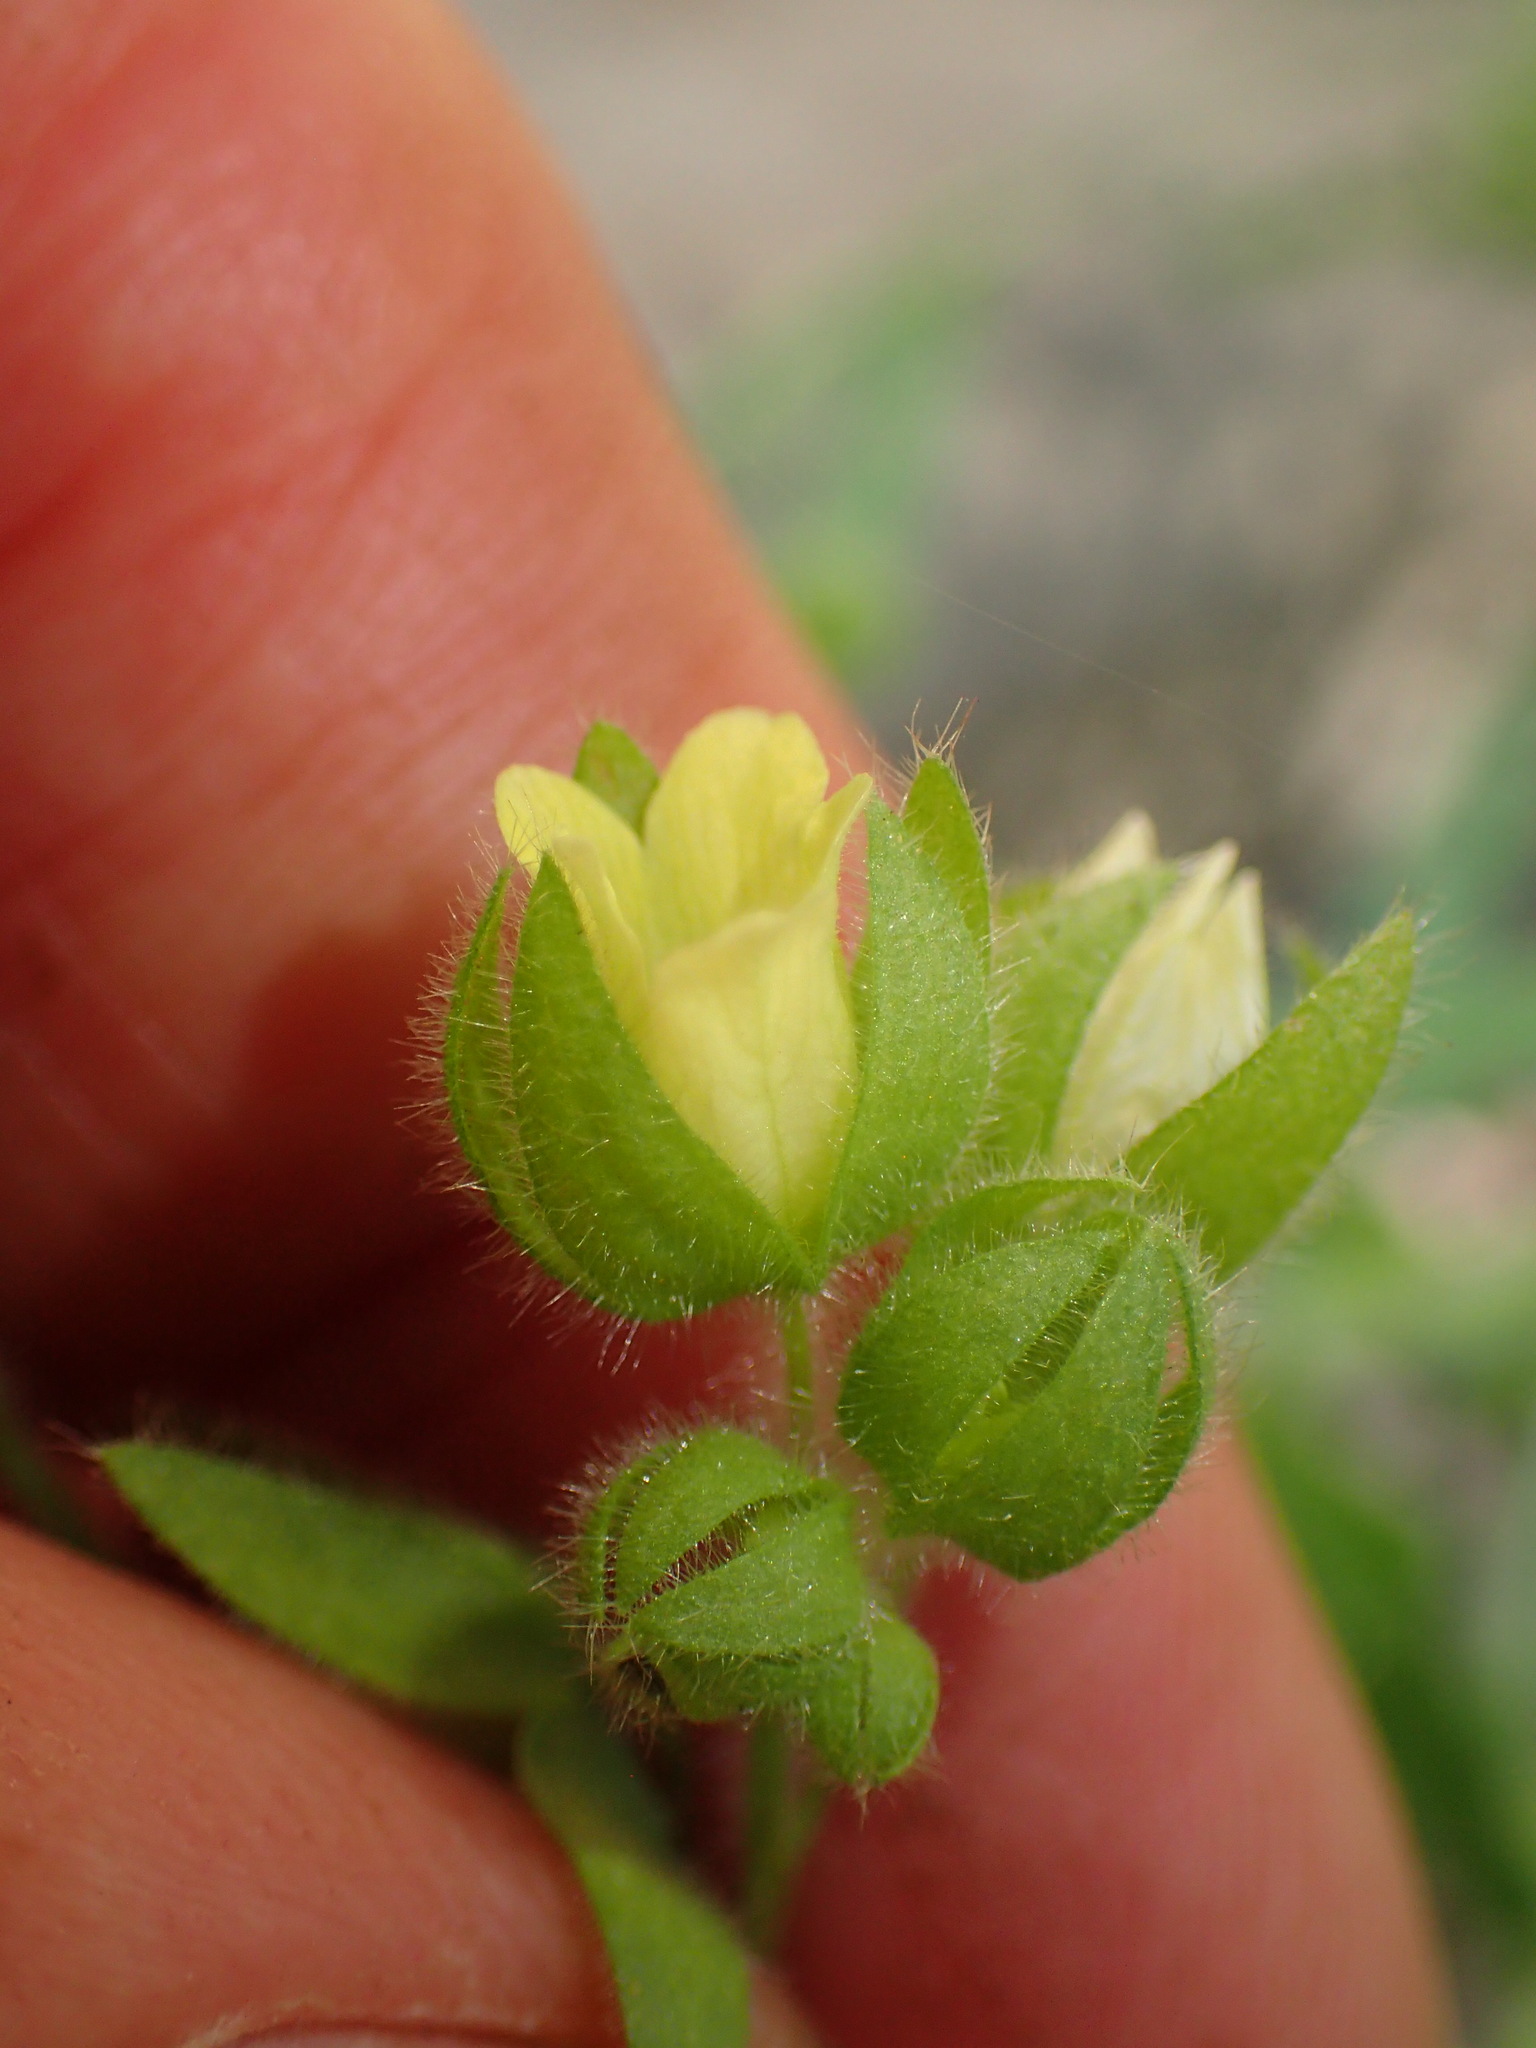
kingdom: Plantae
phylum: Tracheophyta
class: Magnoliopsida
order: Boraginales
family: Hydrophyllaceae
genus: Emmenanthe
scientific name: Emmenanthe penduliflora
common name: Whispering-bells
